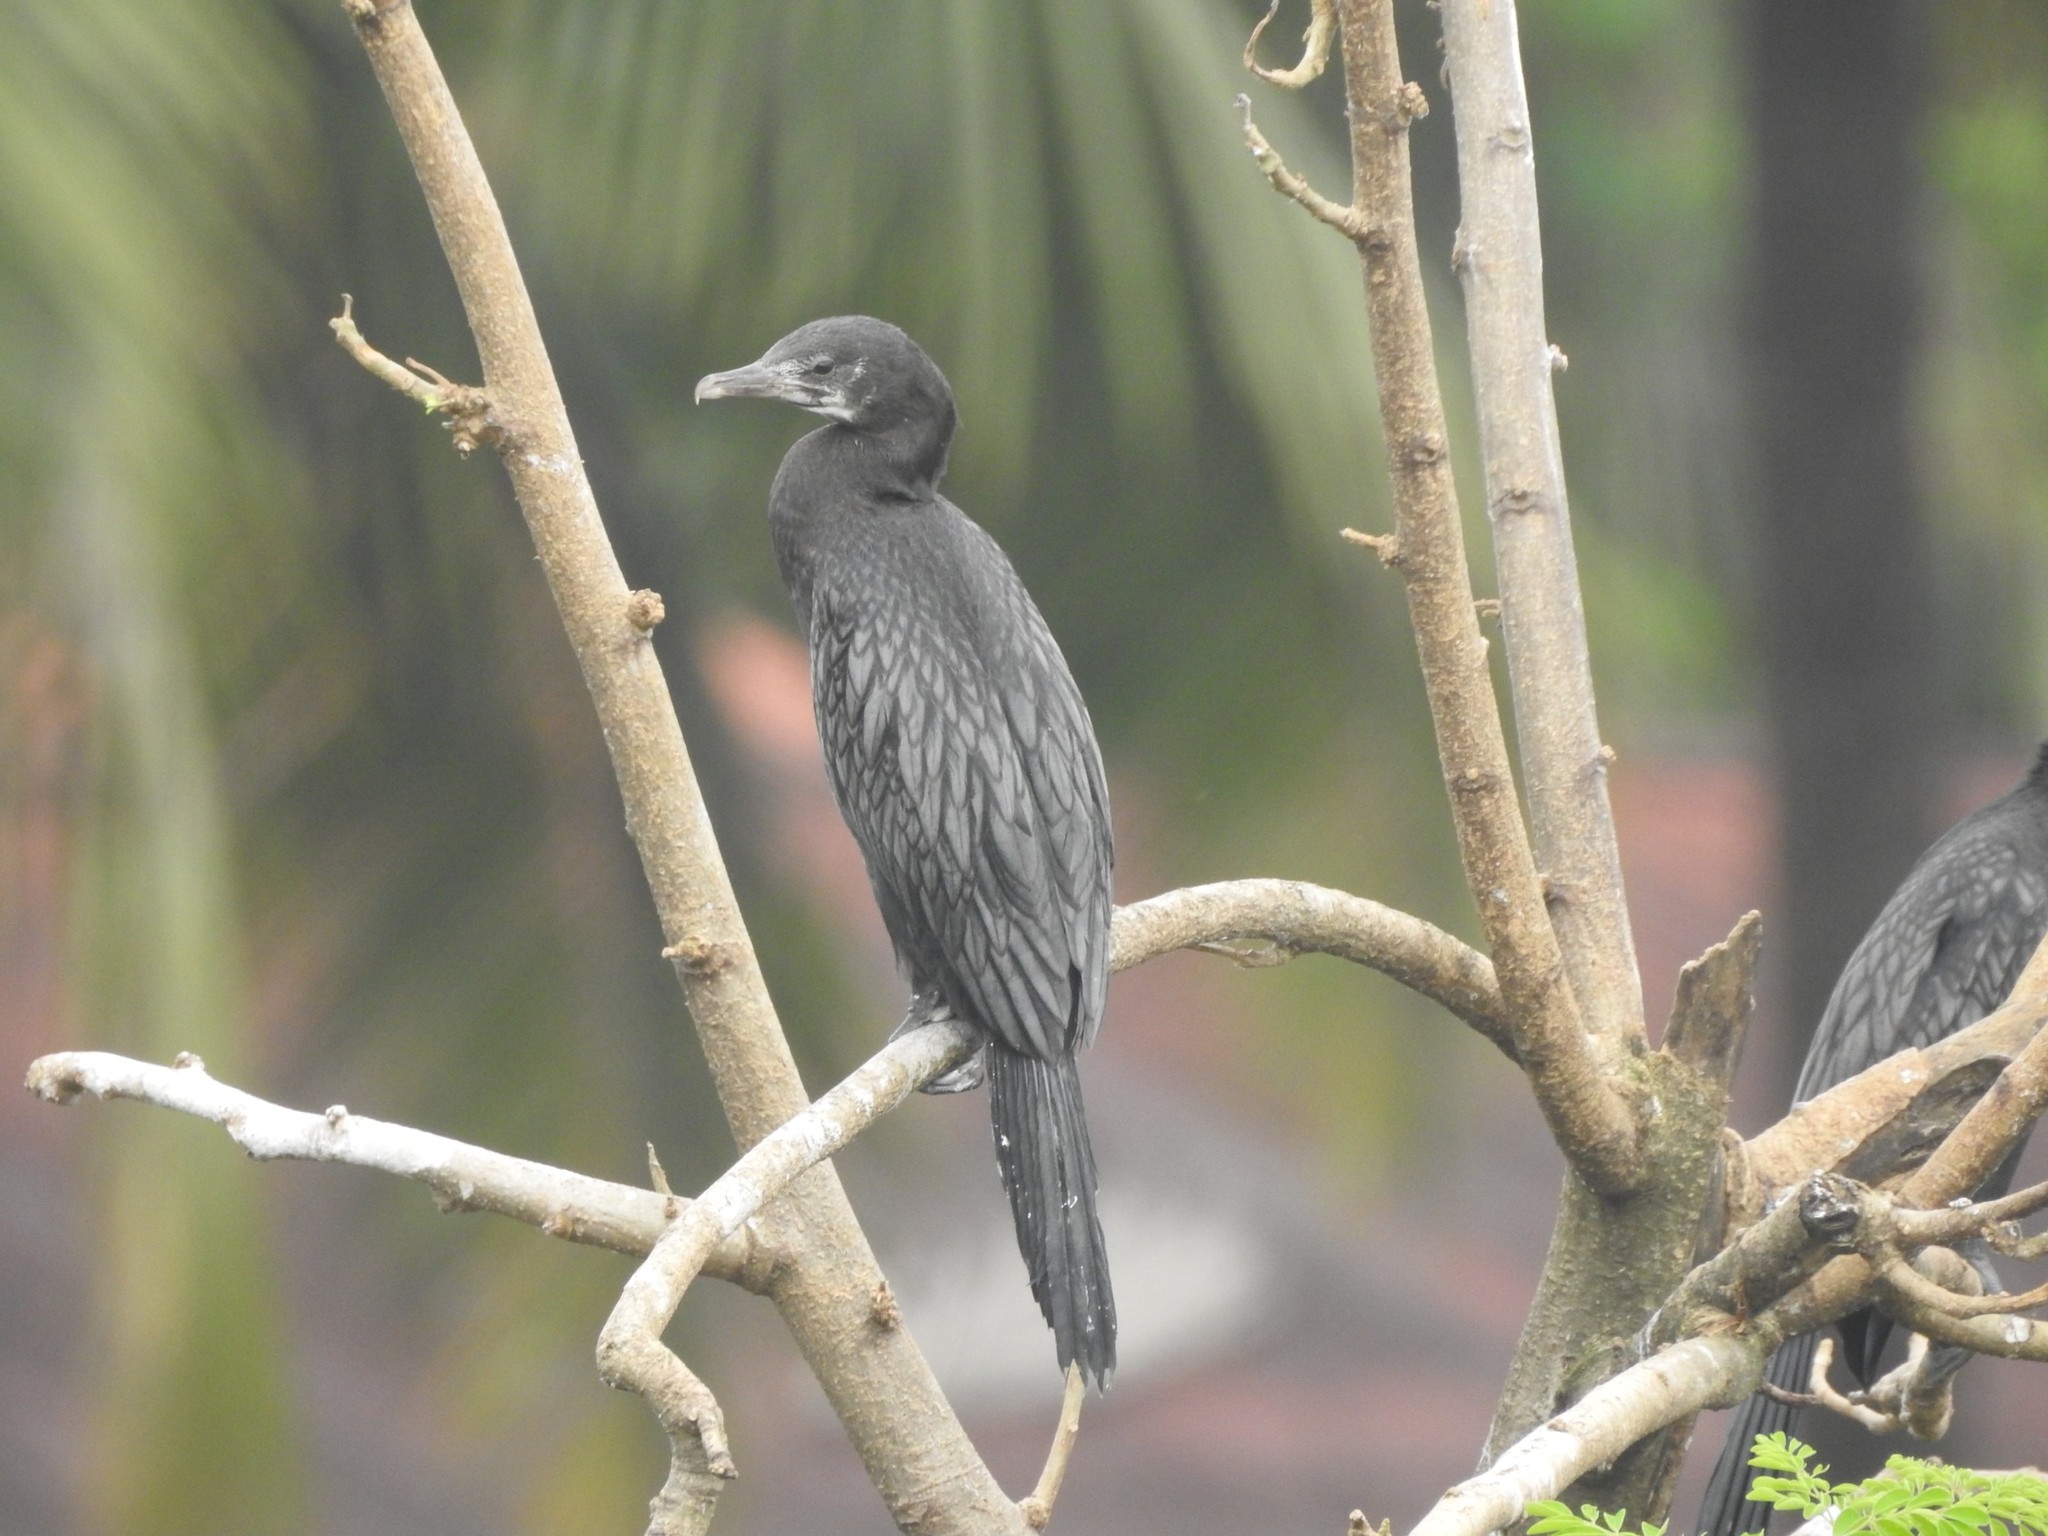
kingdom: Animalia
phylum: Chordata
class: Aves
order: Suliformes
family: Phalacrocoracidae
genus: Microcarbo
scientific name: Microcarbo niger
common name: Little cormorant
